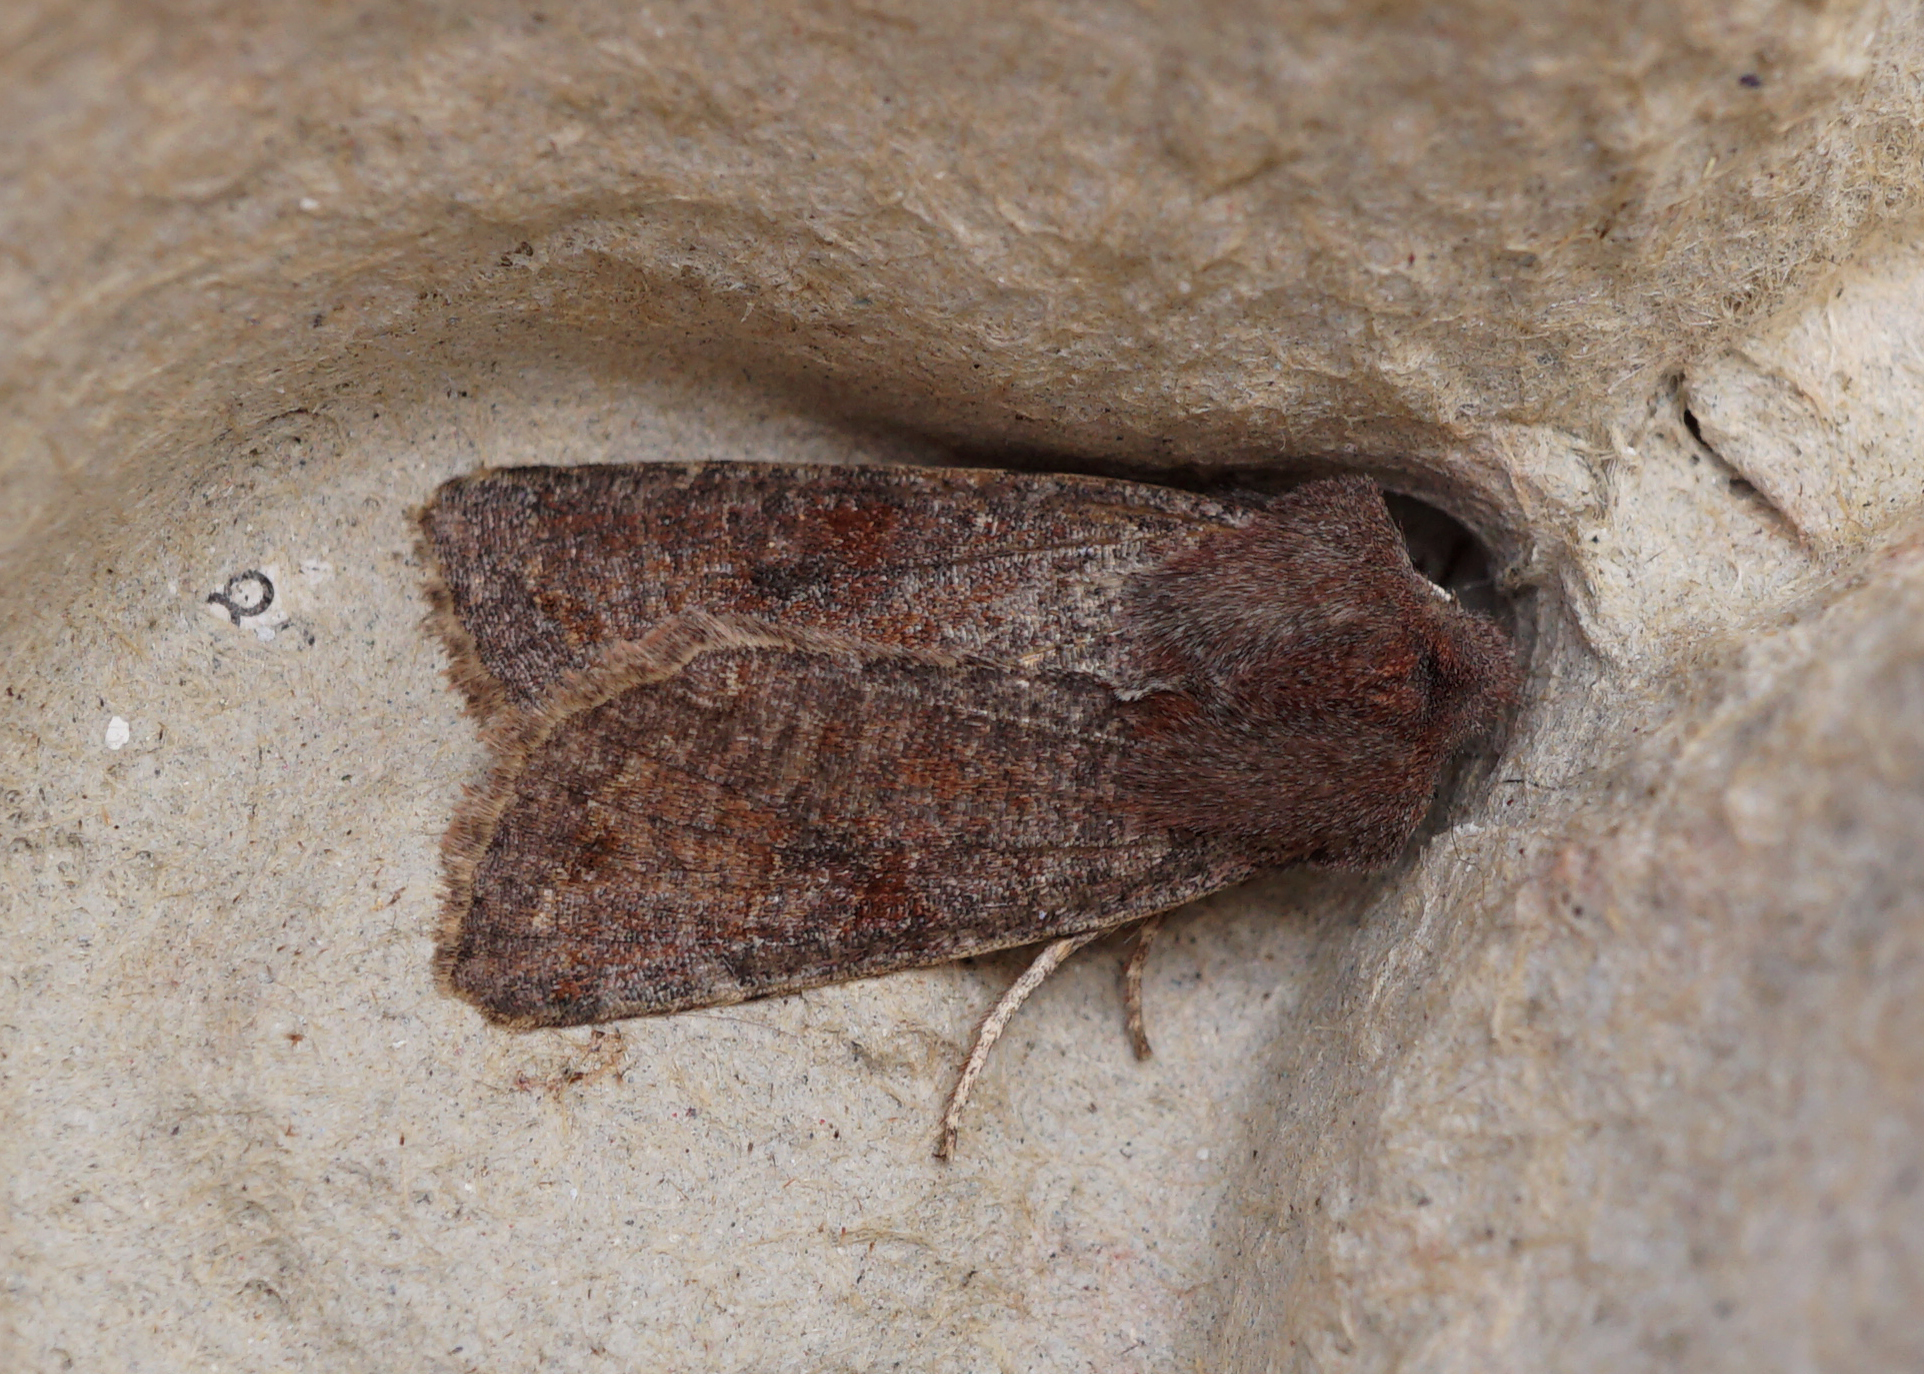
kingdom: Animalia
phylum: Arthropoda
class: Insecta
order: Lepidoptera
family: Noctuidae
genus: Orthosia
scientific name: Orthosia incerta
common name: Clouded drab
